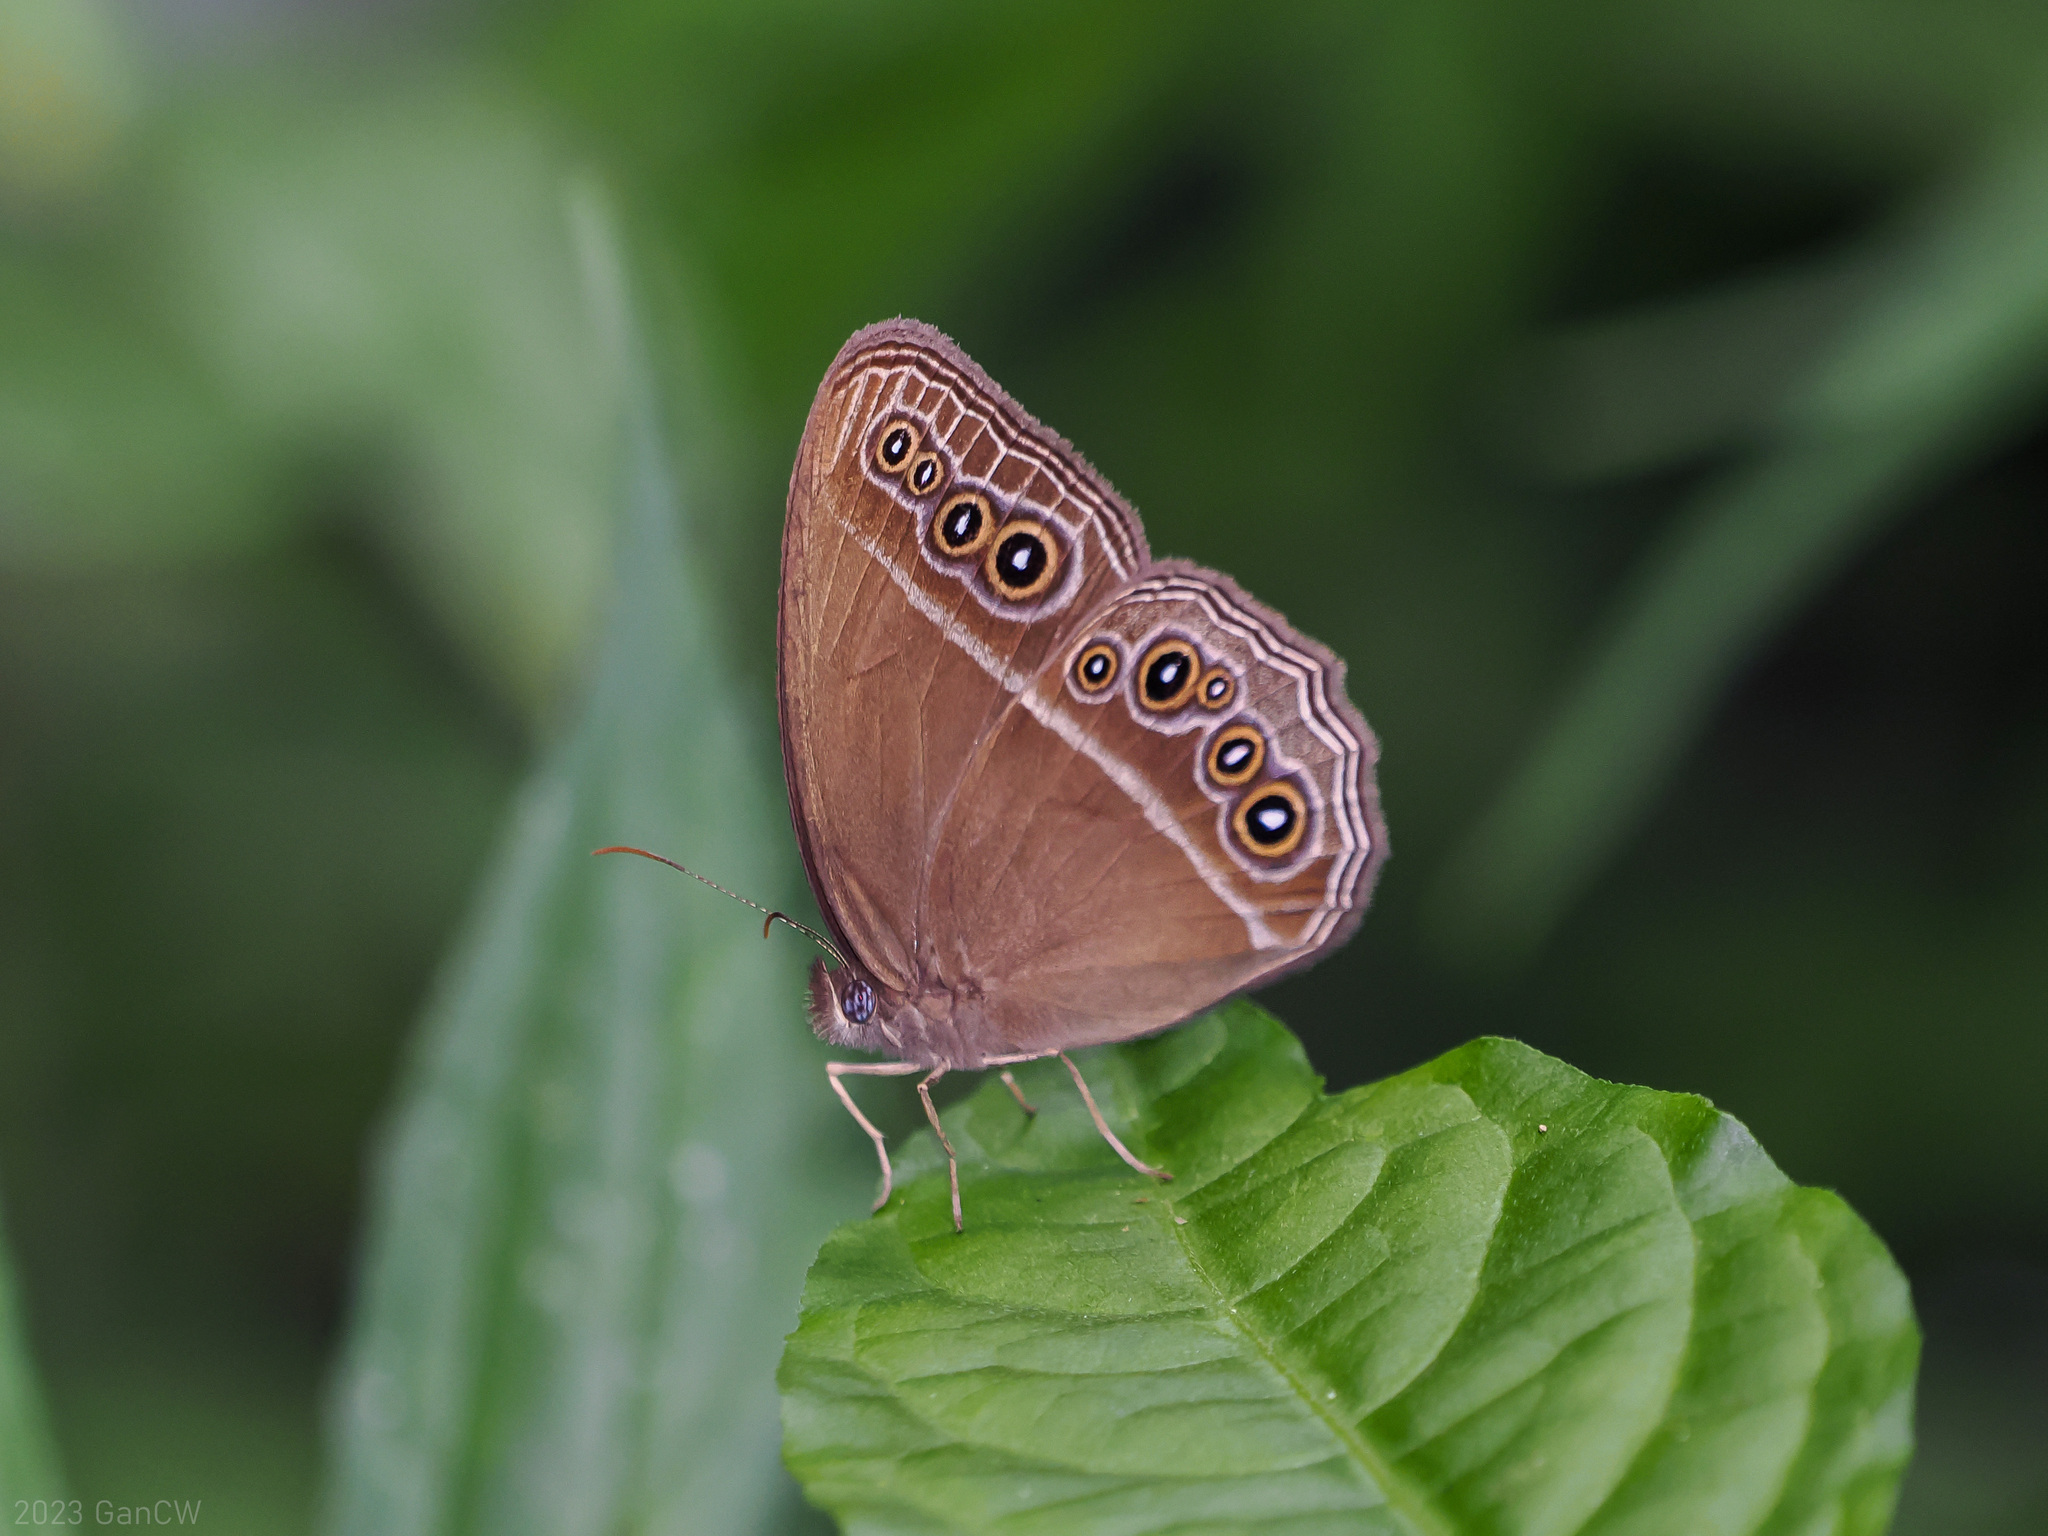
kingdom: Animalia
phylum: Arthropoda
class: Insecta
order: Lepidoptera
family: Nymphalidae
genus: Orsotriaena
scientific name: Orsotriaena jopas
